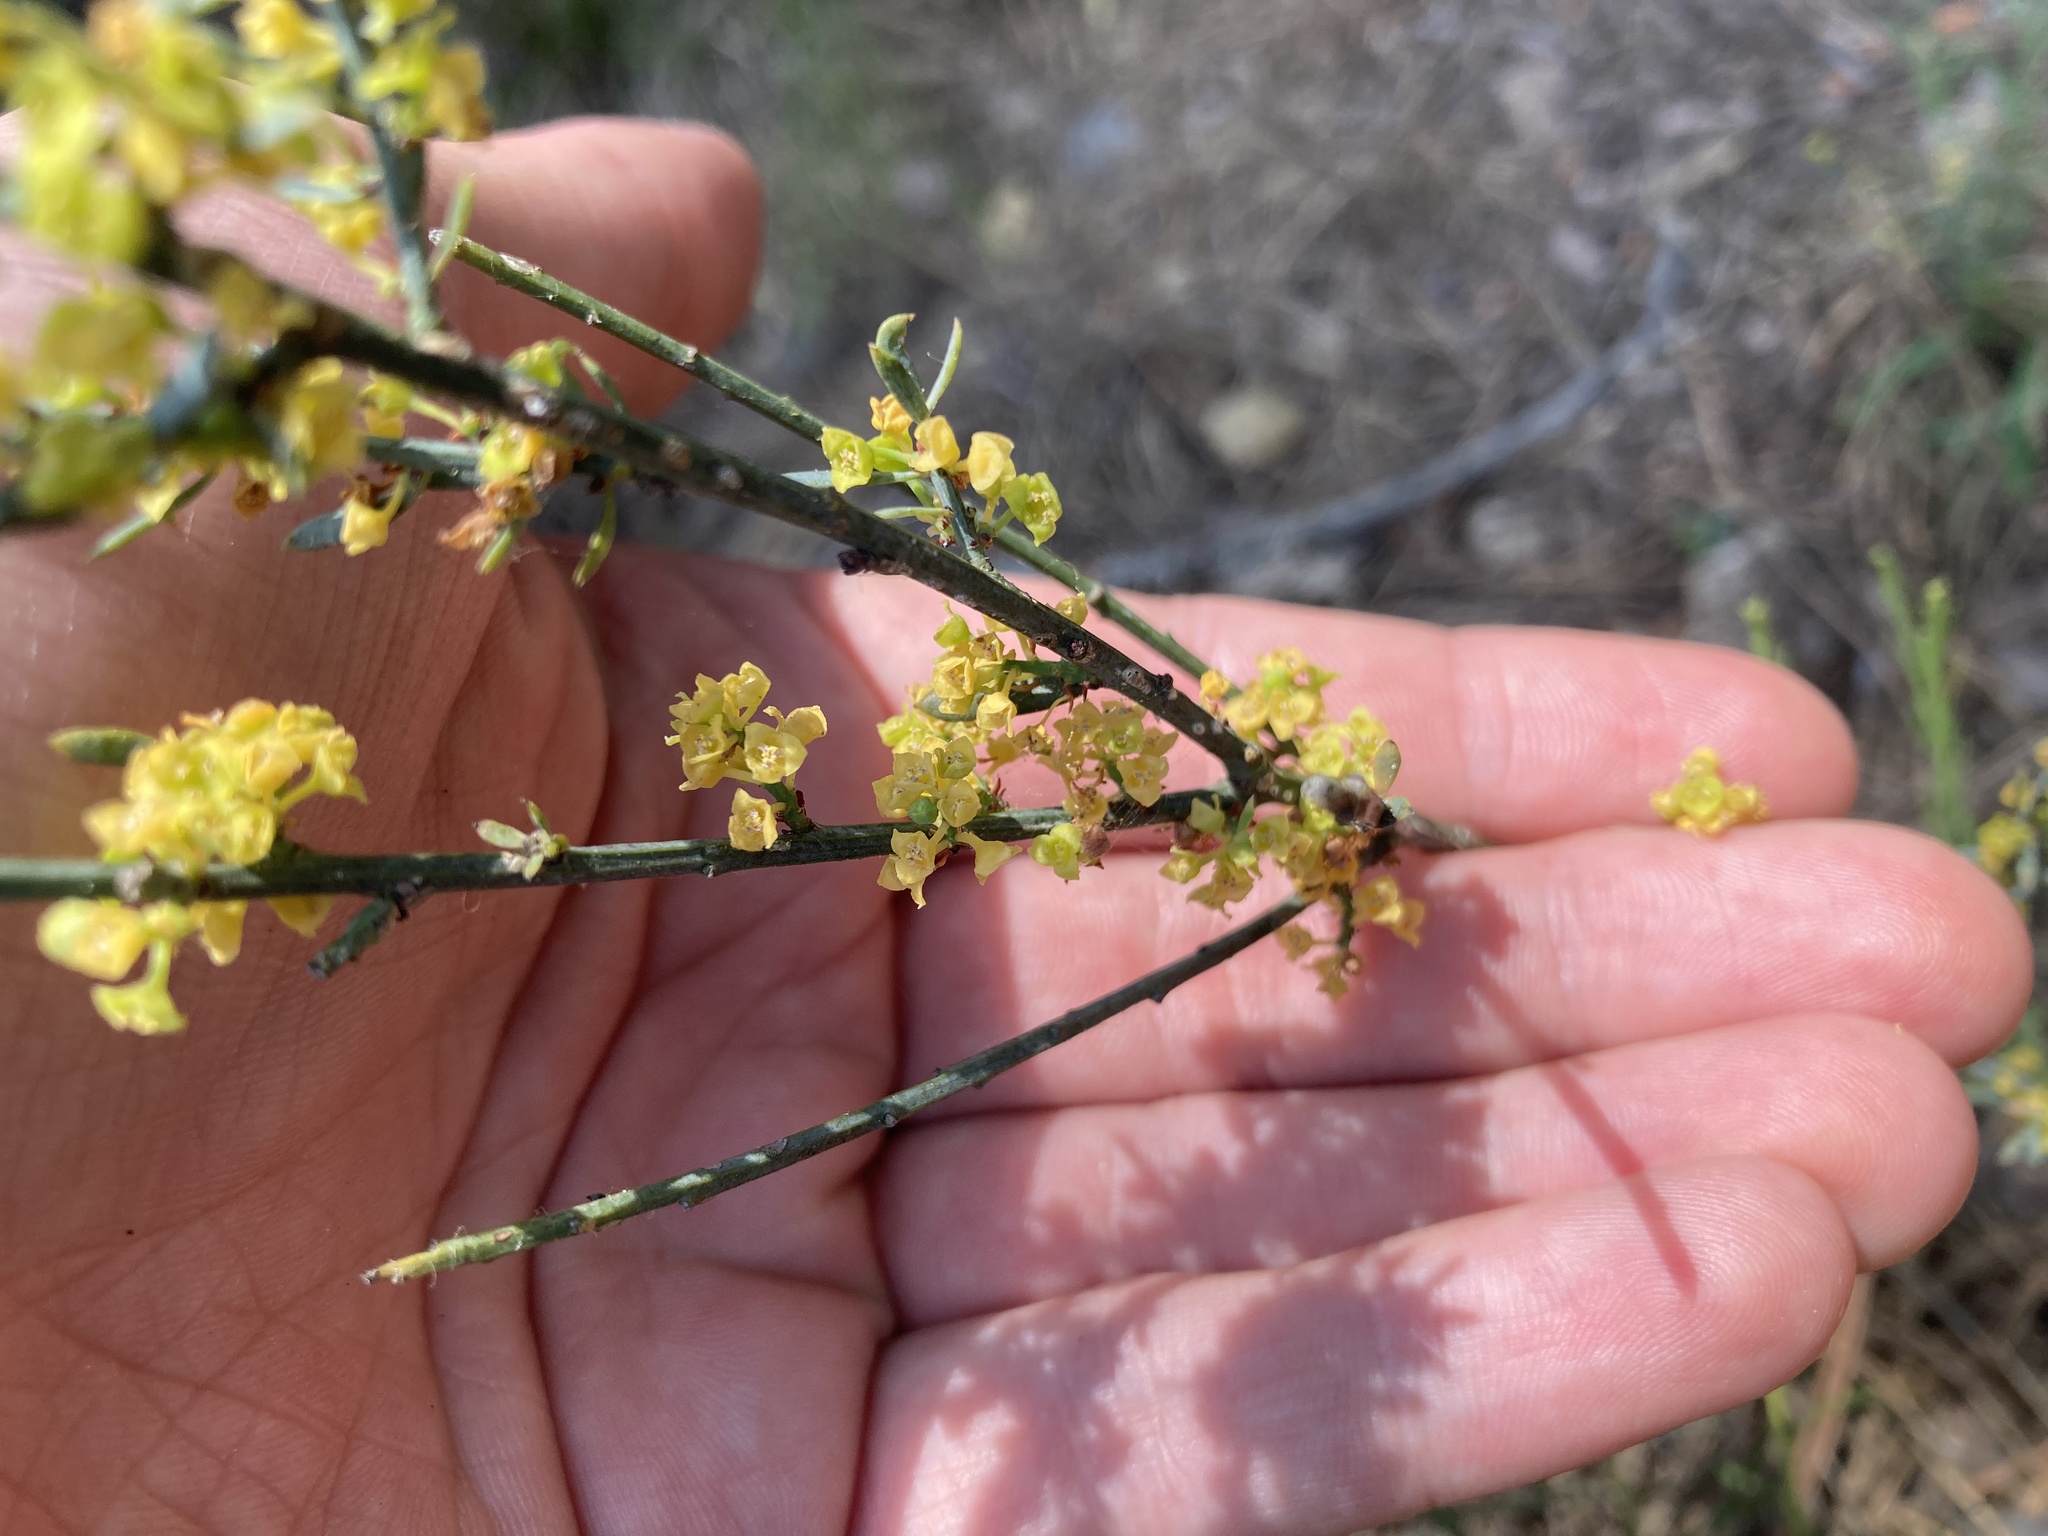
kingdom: Plantae
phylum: Tracheophyta
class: Magnoliopsida
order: Santalales
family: Santalaceae
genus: Osyris
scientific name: Osyris alba
